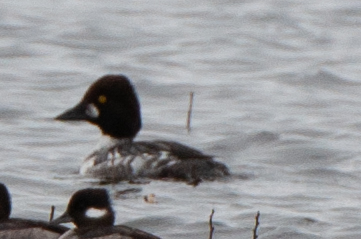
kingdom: Animalia
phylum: Chordata
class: Aves
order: Anseriformes
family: Anatidae
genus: Bucephala
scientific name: Bucephala clangula
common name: Common goldeneye
